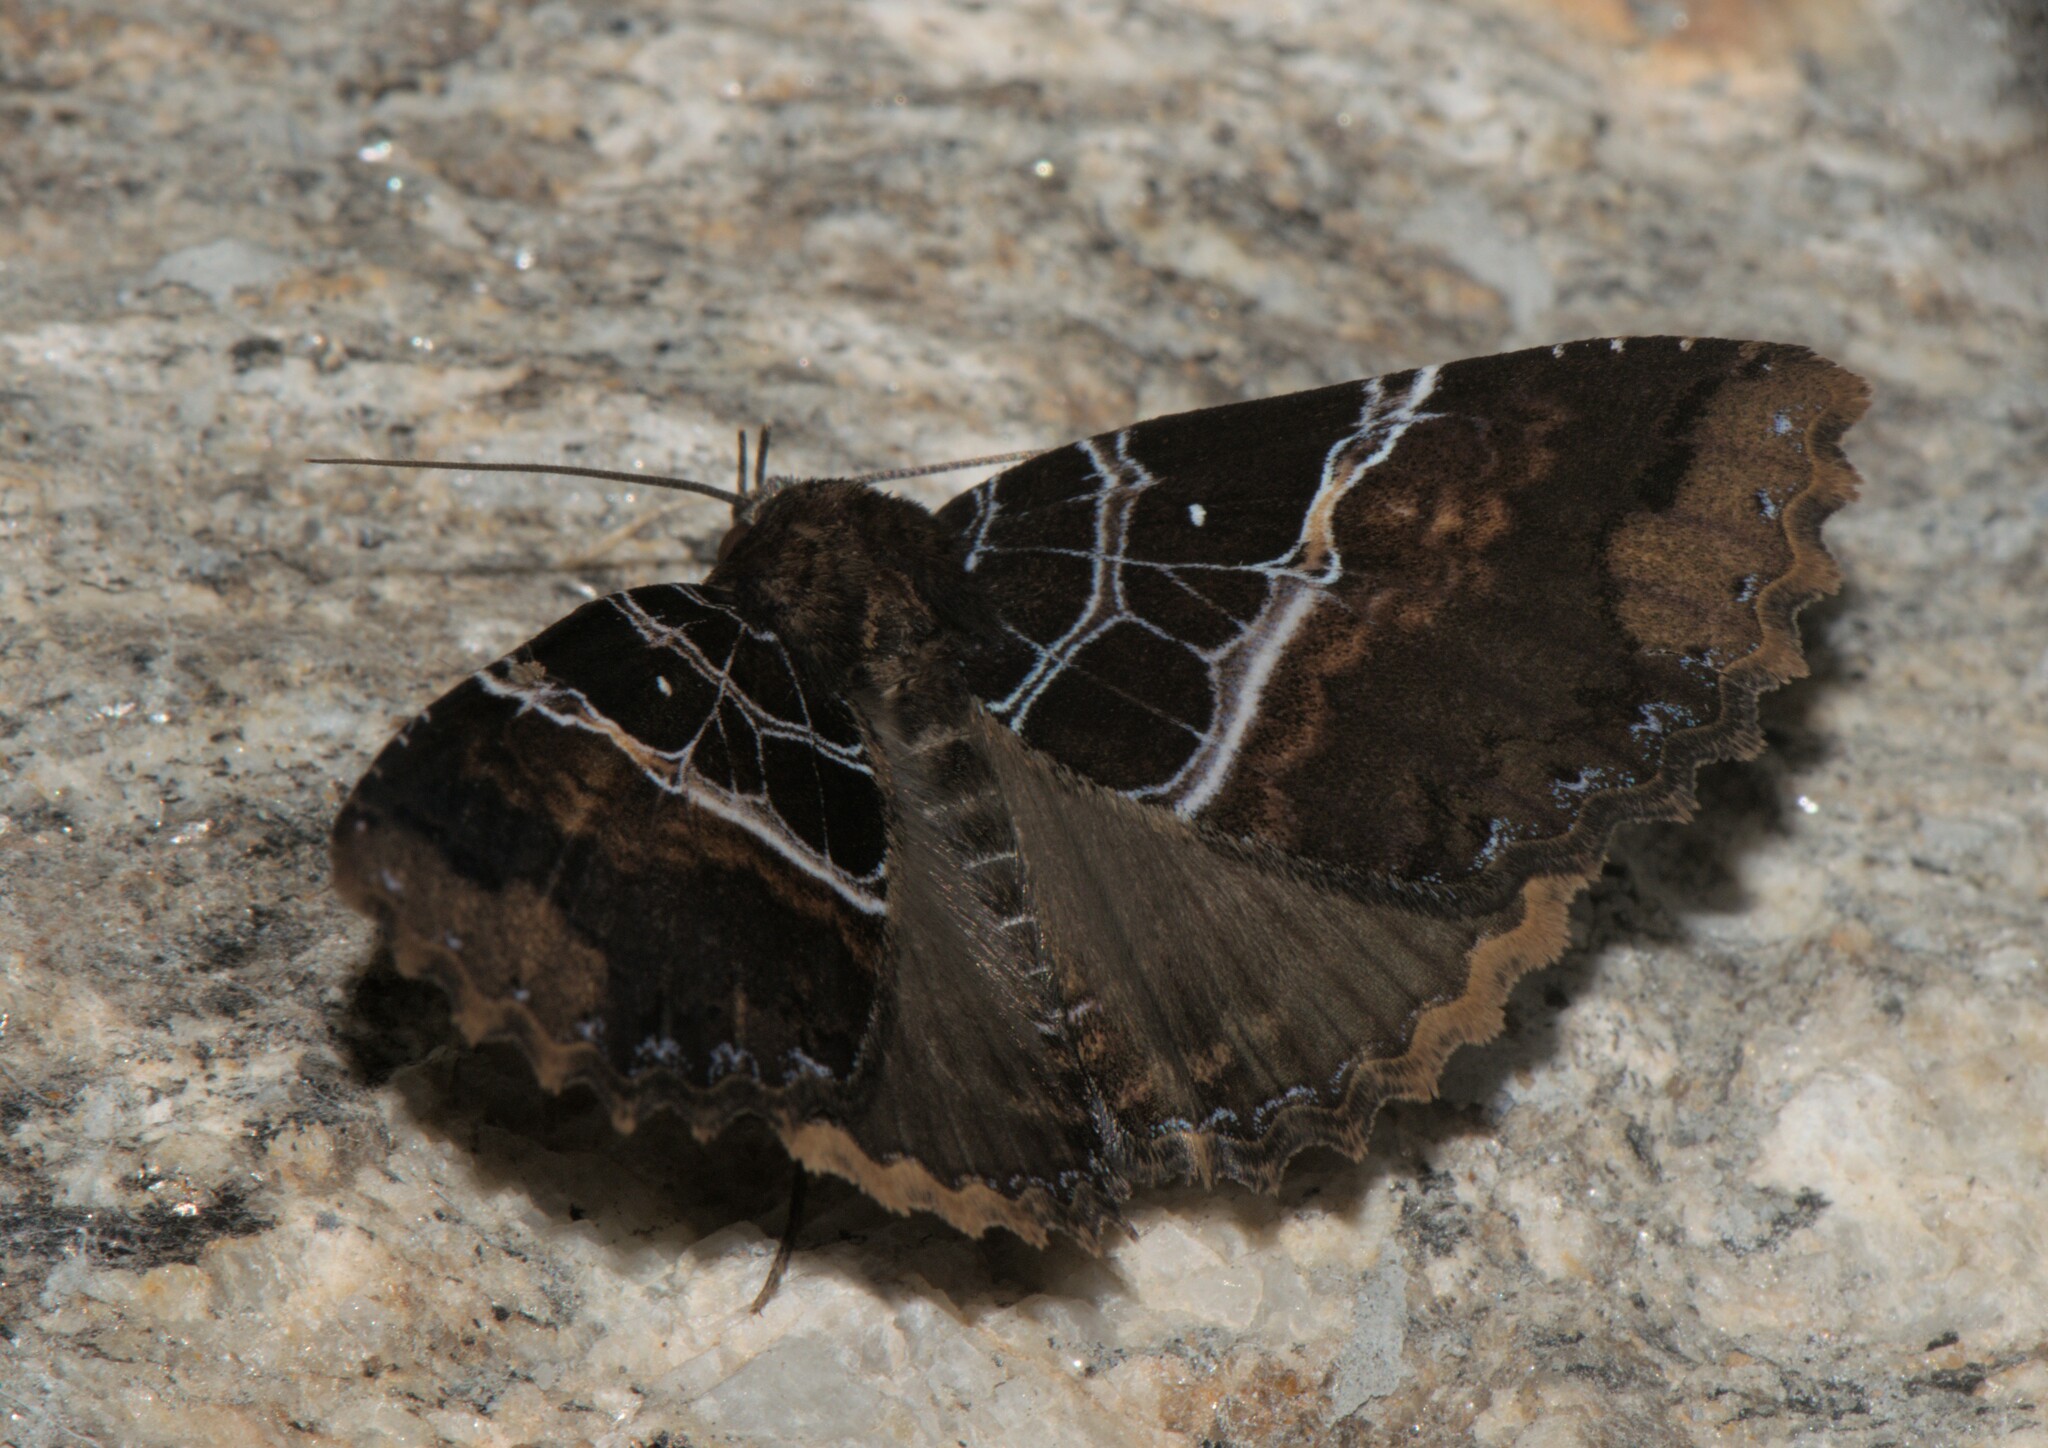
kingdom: Animalia
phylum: Arthropoda
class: Insecta
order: Lepidoptera
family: Erebidae
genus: Sypnoides
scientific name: Sypnoides
